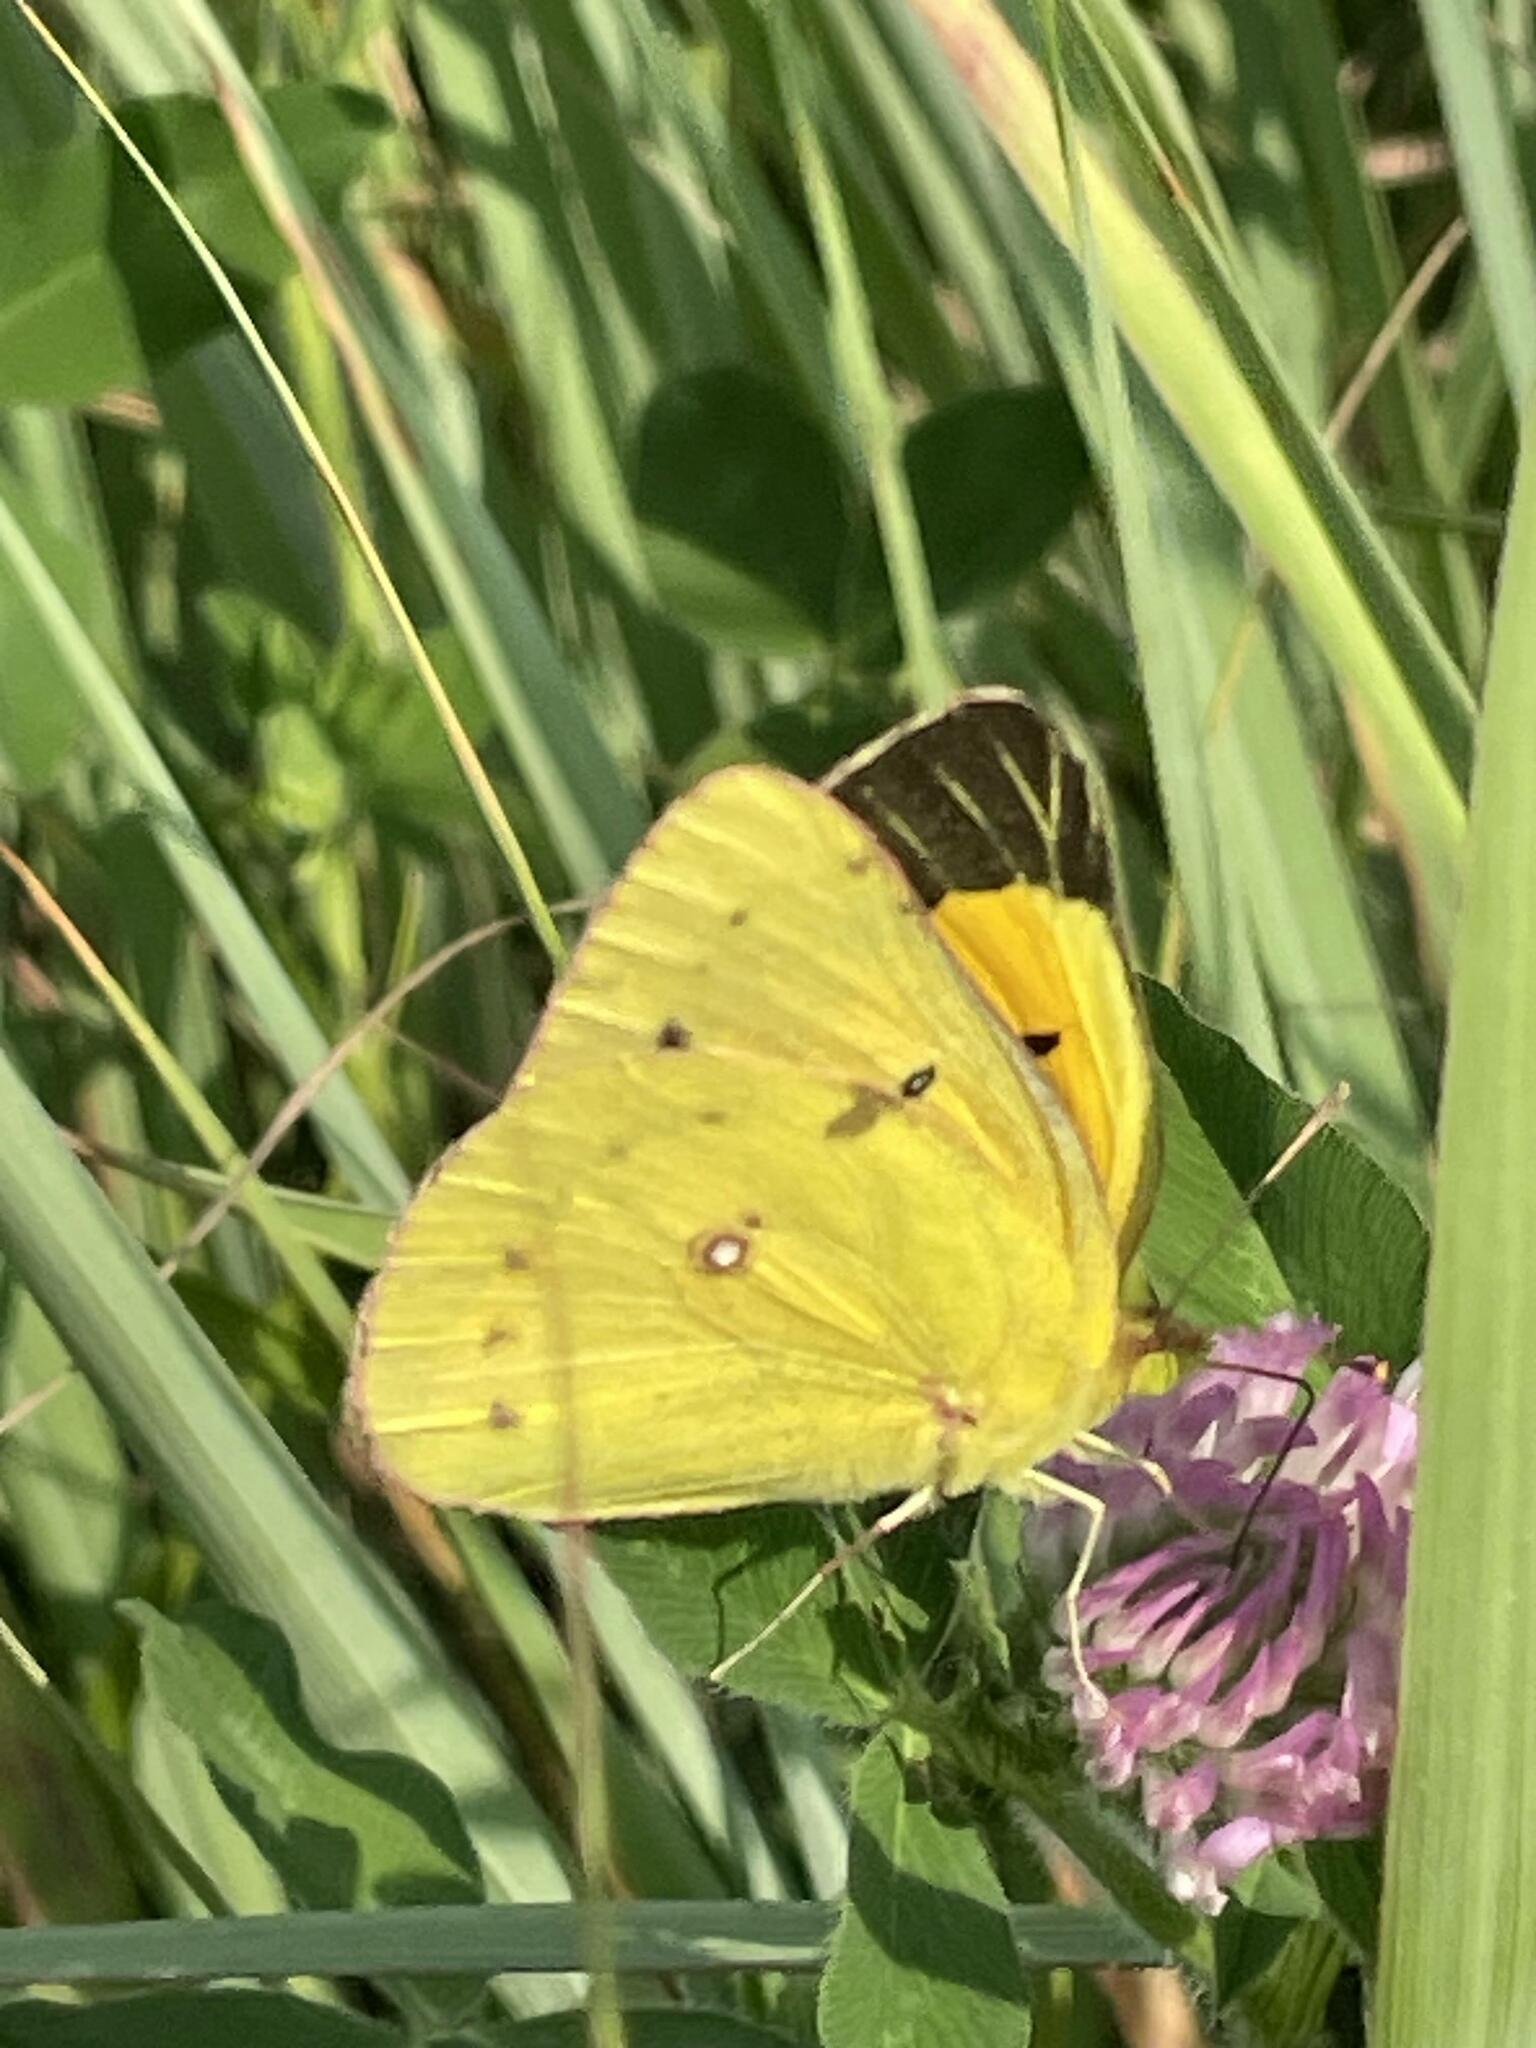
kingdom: Animalia
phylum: Arthropoda
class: Insecta
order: Lepidoptera
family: Pieridae
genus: Colias
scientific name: Colias eurytheme
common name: Alfalfa butterfly
